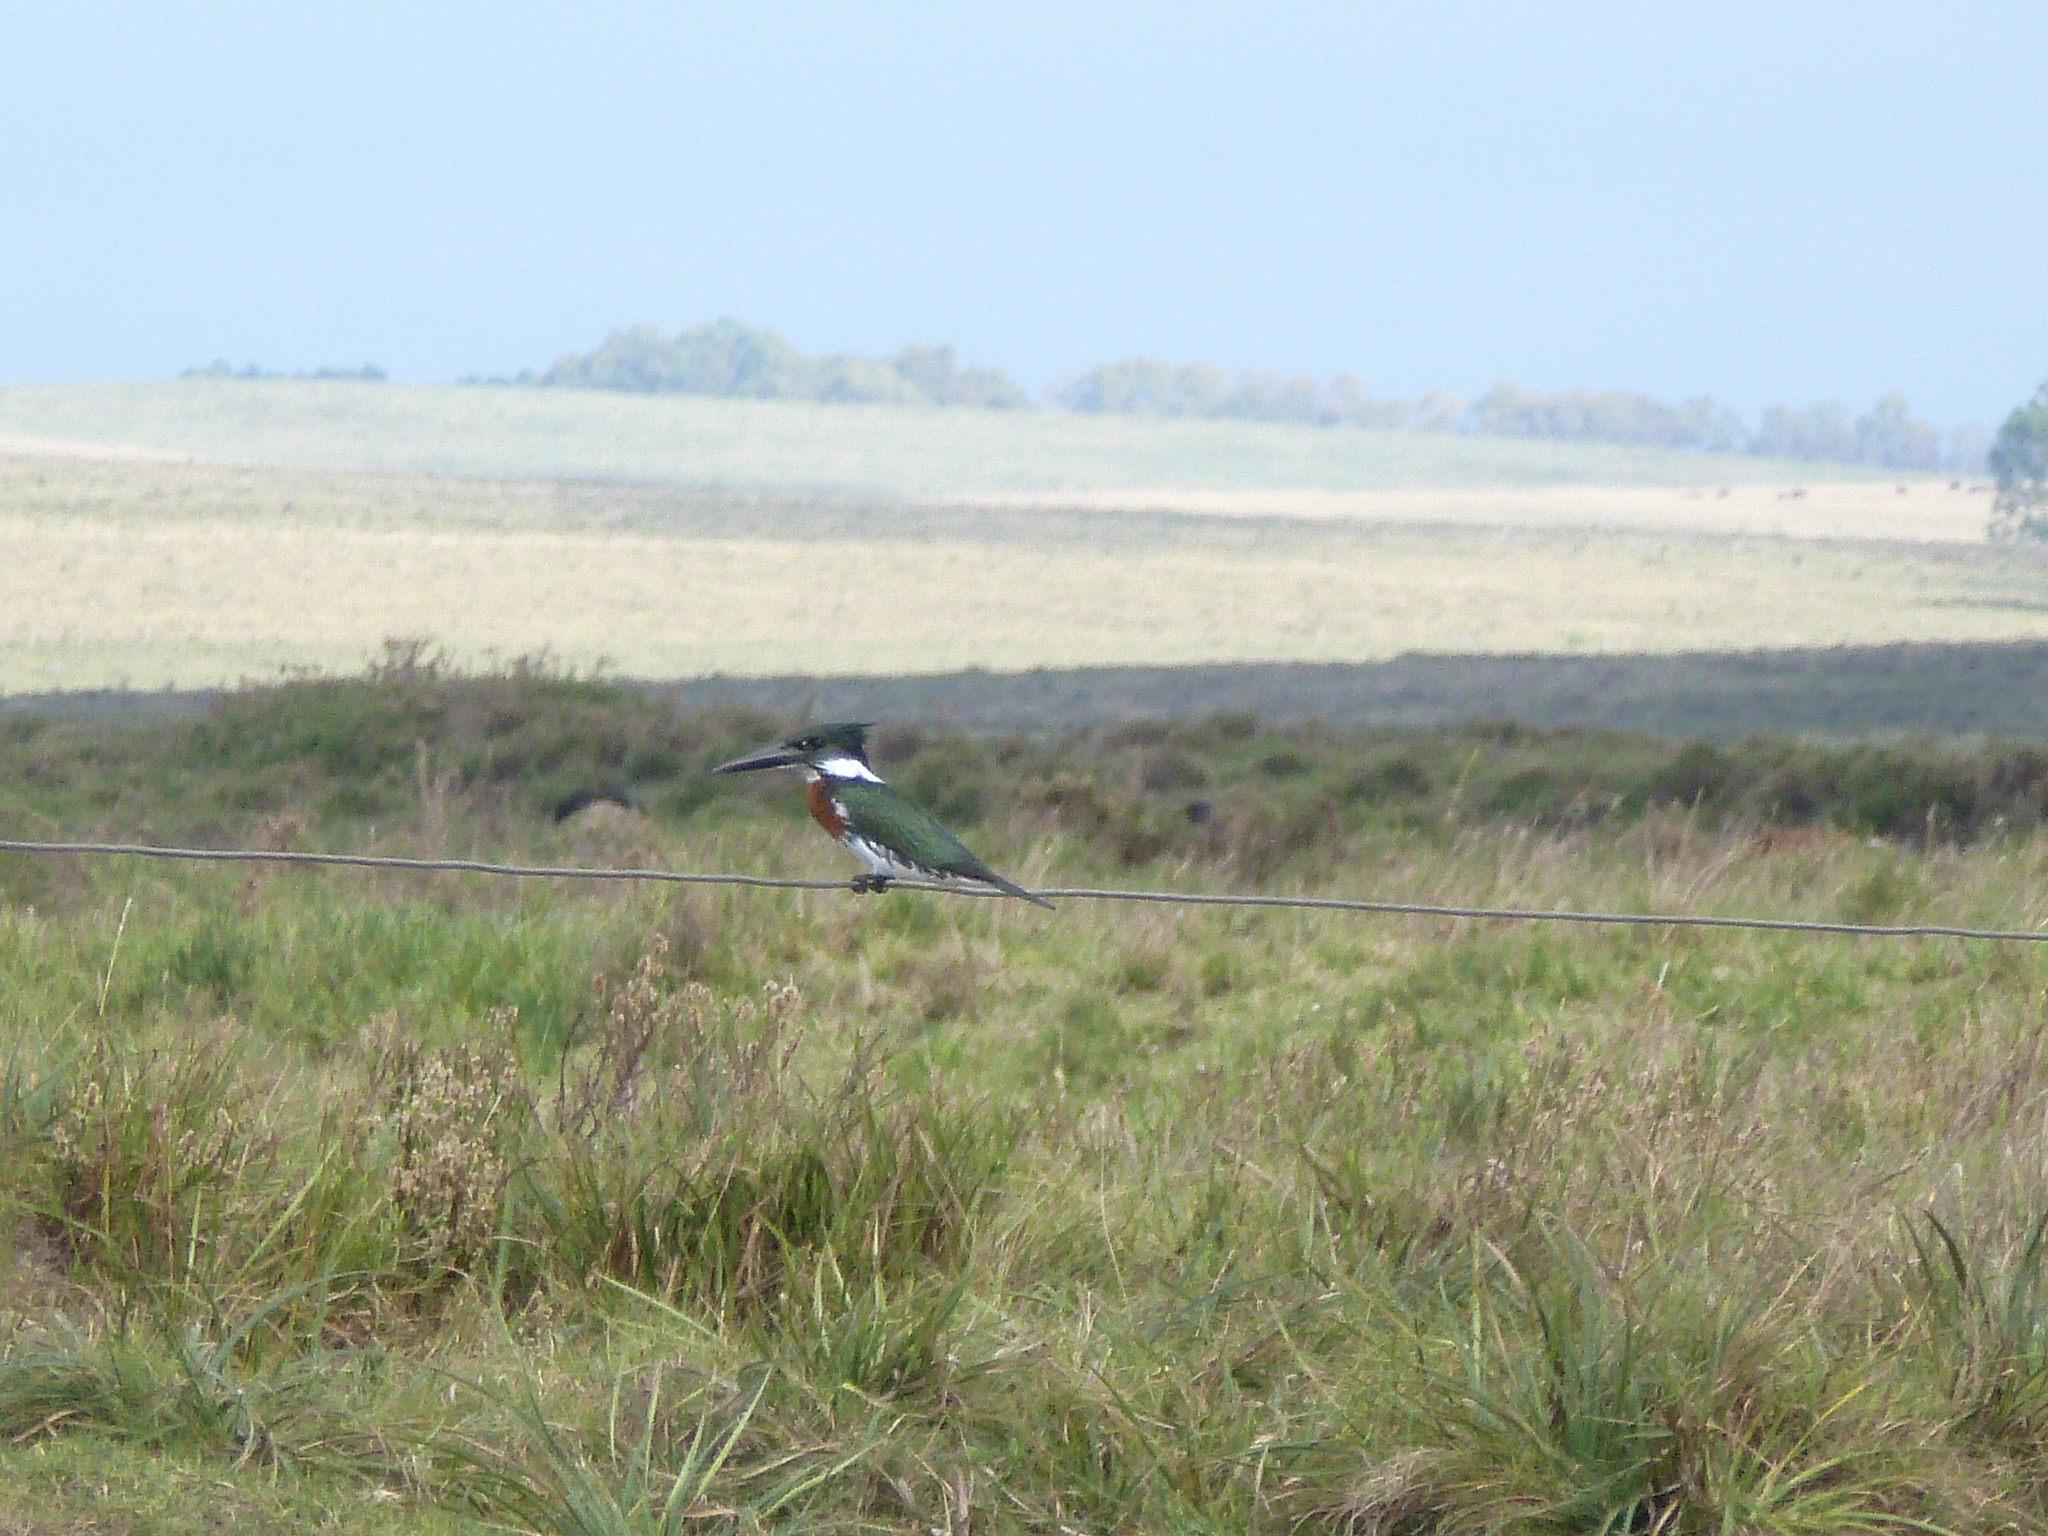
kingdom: Animalia
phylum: Chordata
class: Aves
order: Coraciiformes
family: Alcedinidae
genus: Chloroceryle
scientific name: Chloroceryle amazona
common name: Amazon kingfisher
